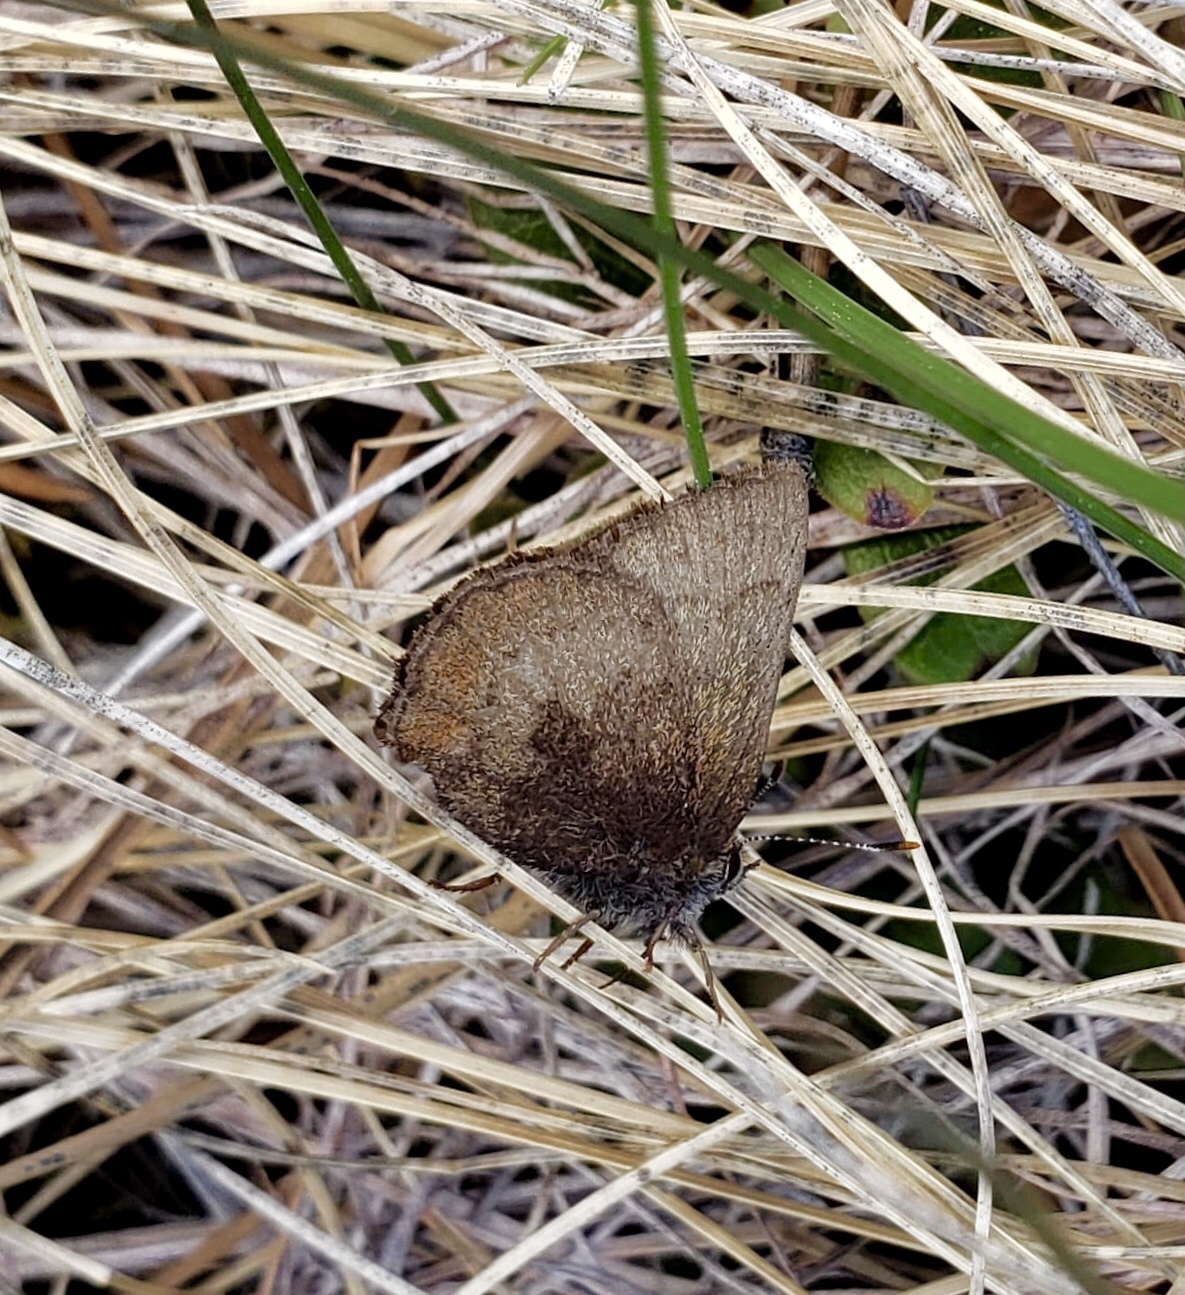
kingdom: Animalia
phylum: Arthropoda
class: Insecta
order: Lepidoptera
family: Lycaenidae
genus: Incisalia
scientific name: Incisalia irioides
